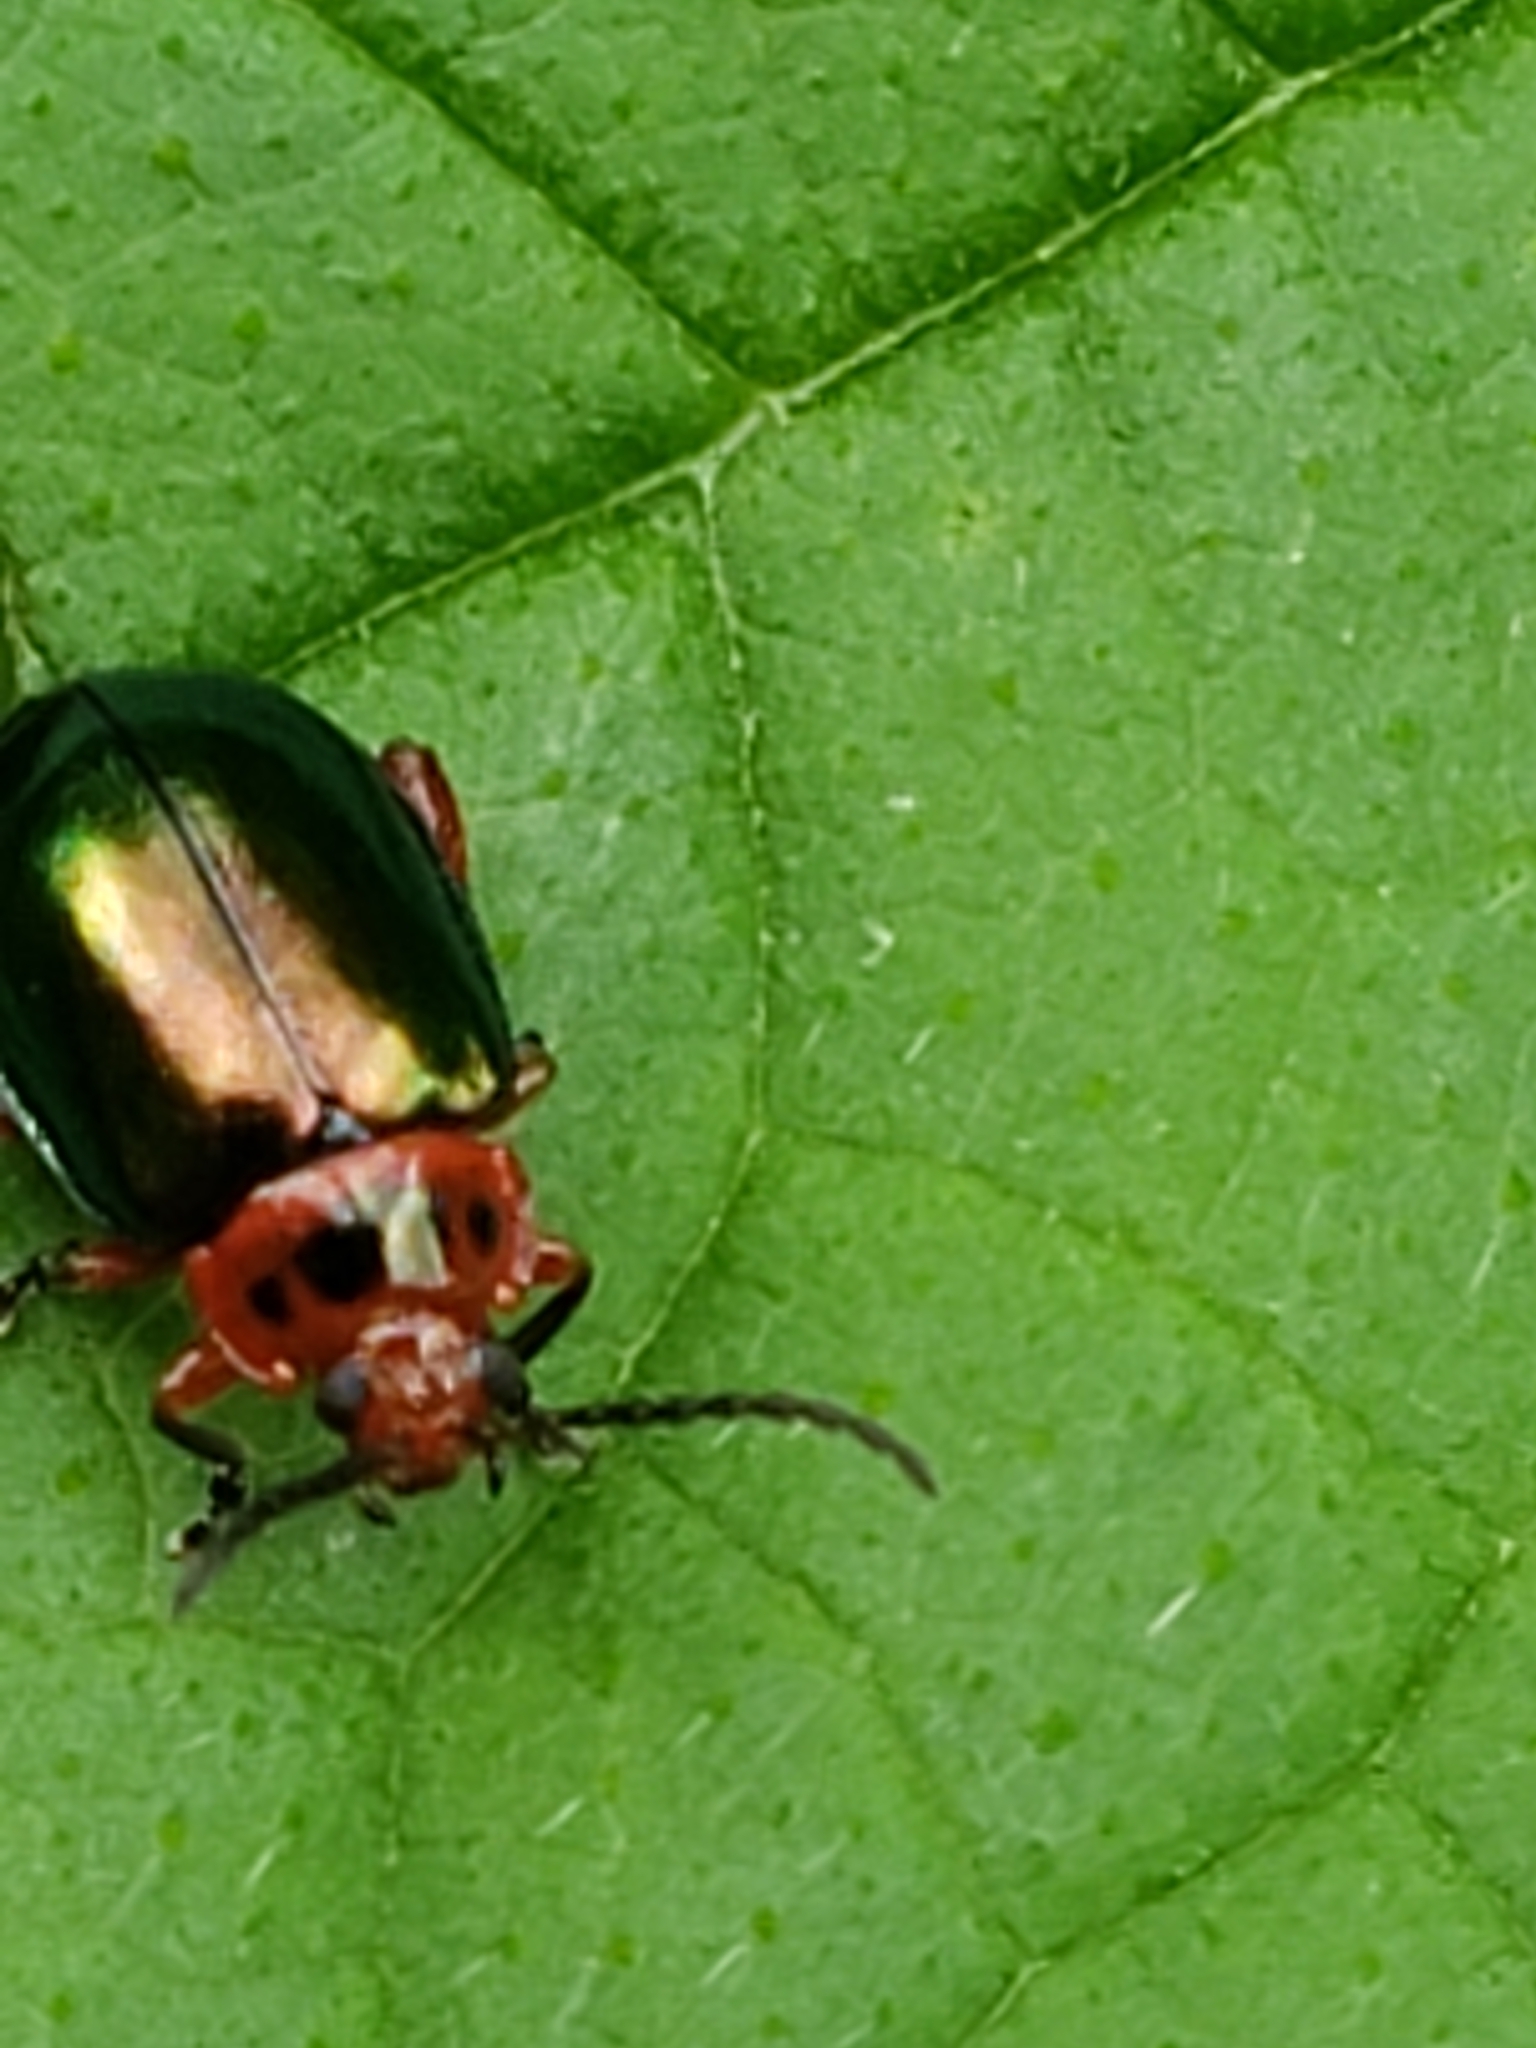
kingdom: Animalia
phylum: Arthropoda
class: Insecta
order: Coleoptera
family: Chrysomelidae
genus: Kuschelina
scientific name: Kuschelina gibbitarsa
